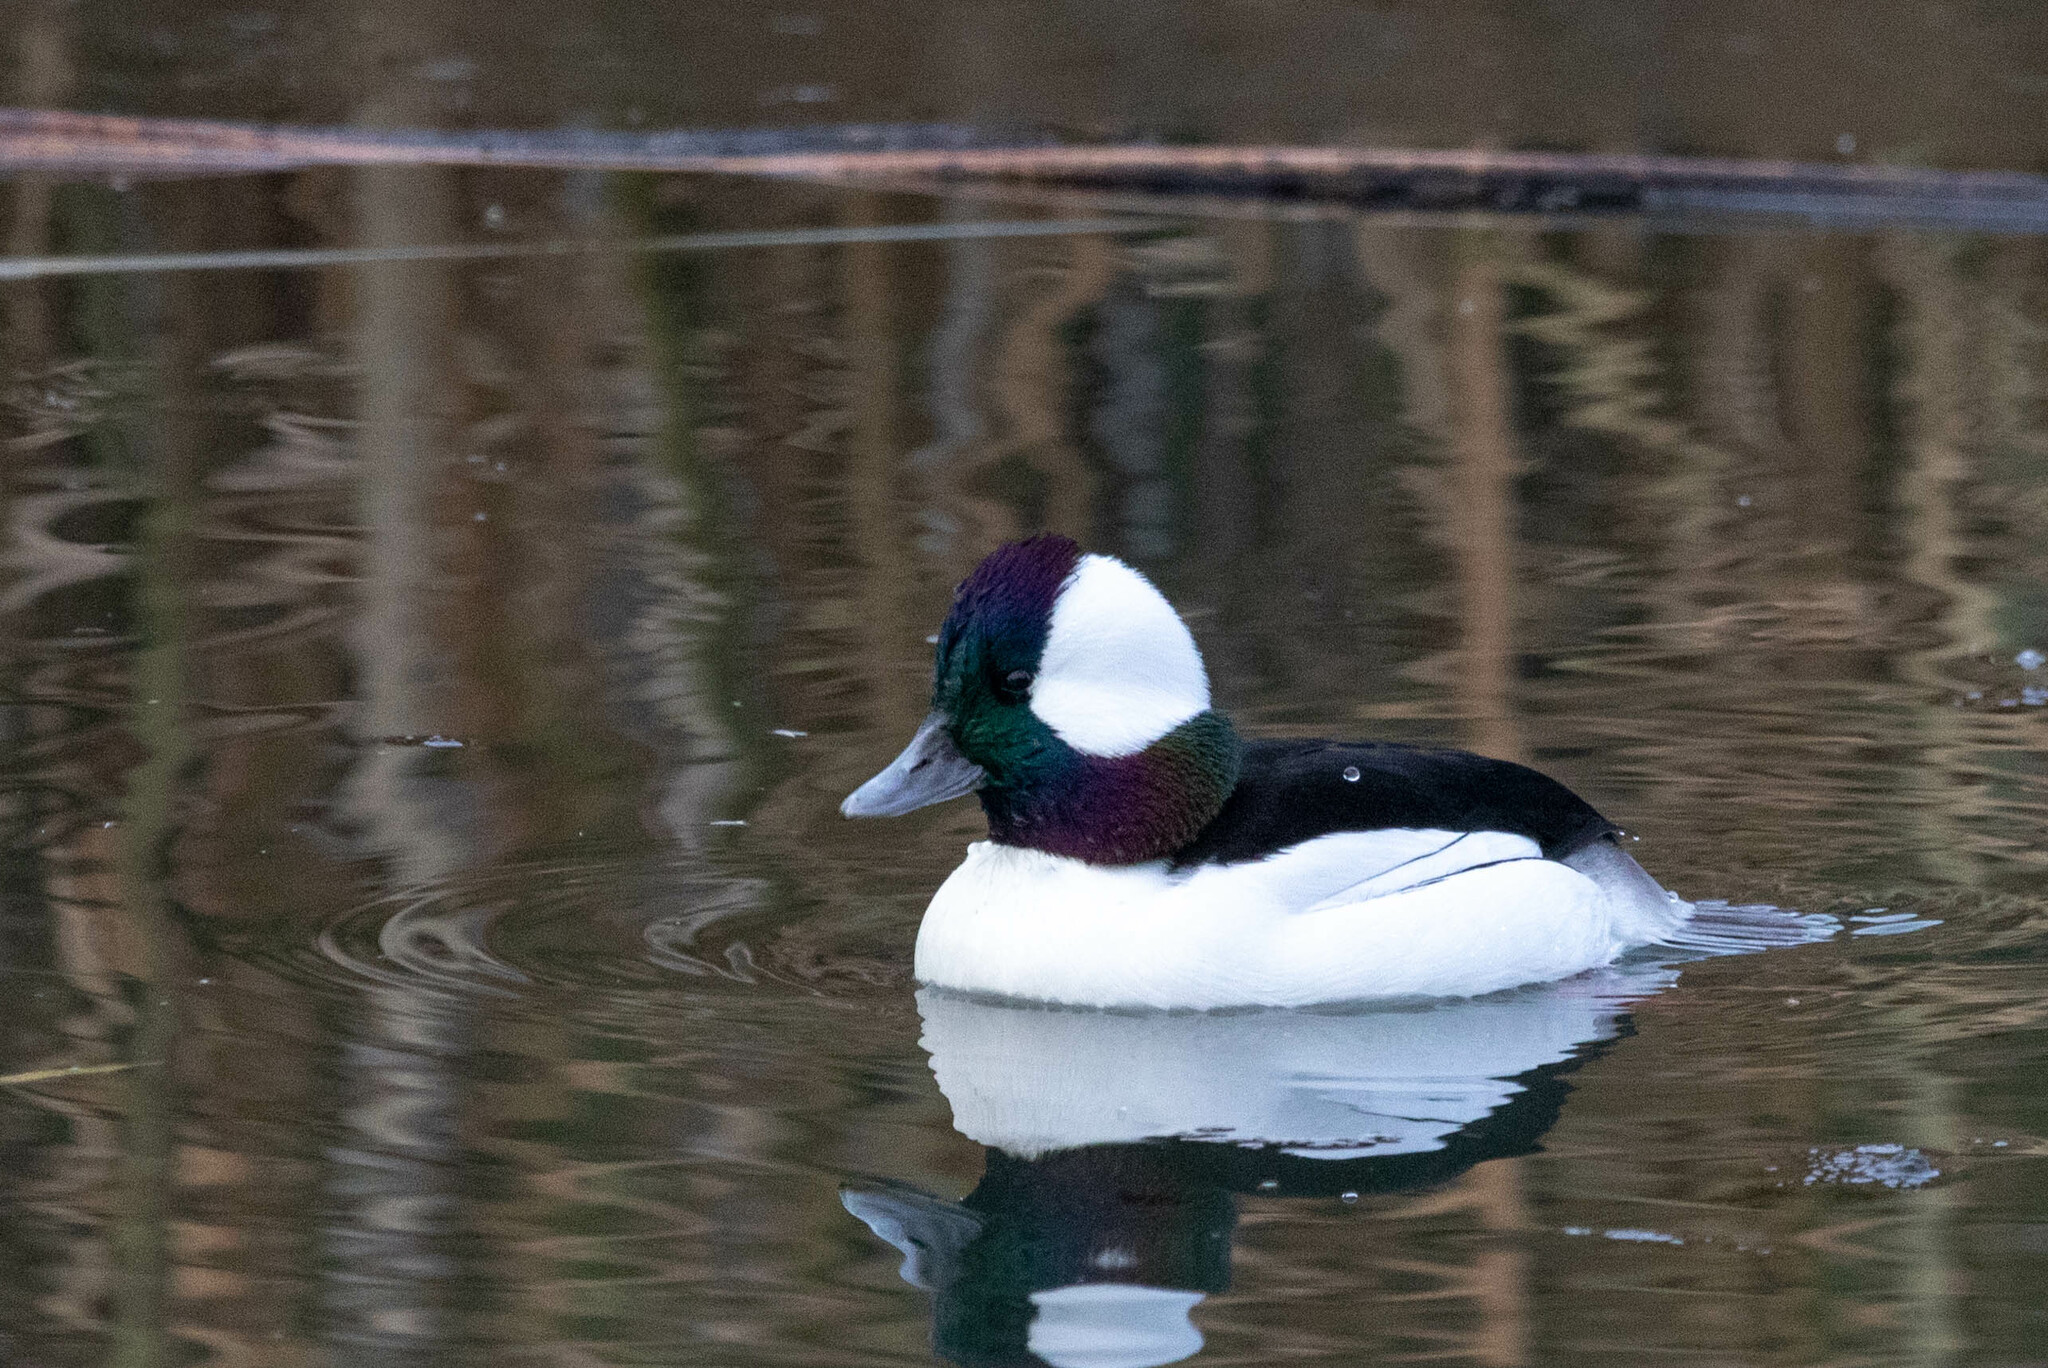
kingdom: Animalia
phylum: Chordata
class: Aves
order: Anseriformes
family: Anatidae
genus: Bucephala
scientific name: Bucephala albeola
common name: Bufflehead
